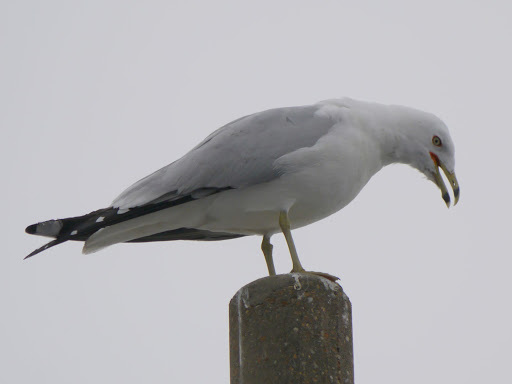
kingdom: Animalia
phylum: Chordata
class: Aves
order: Charadriiformes
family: Laridae
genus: Larus
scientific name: Larus delawarensis
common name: Ring-billed gull
